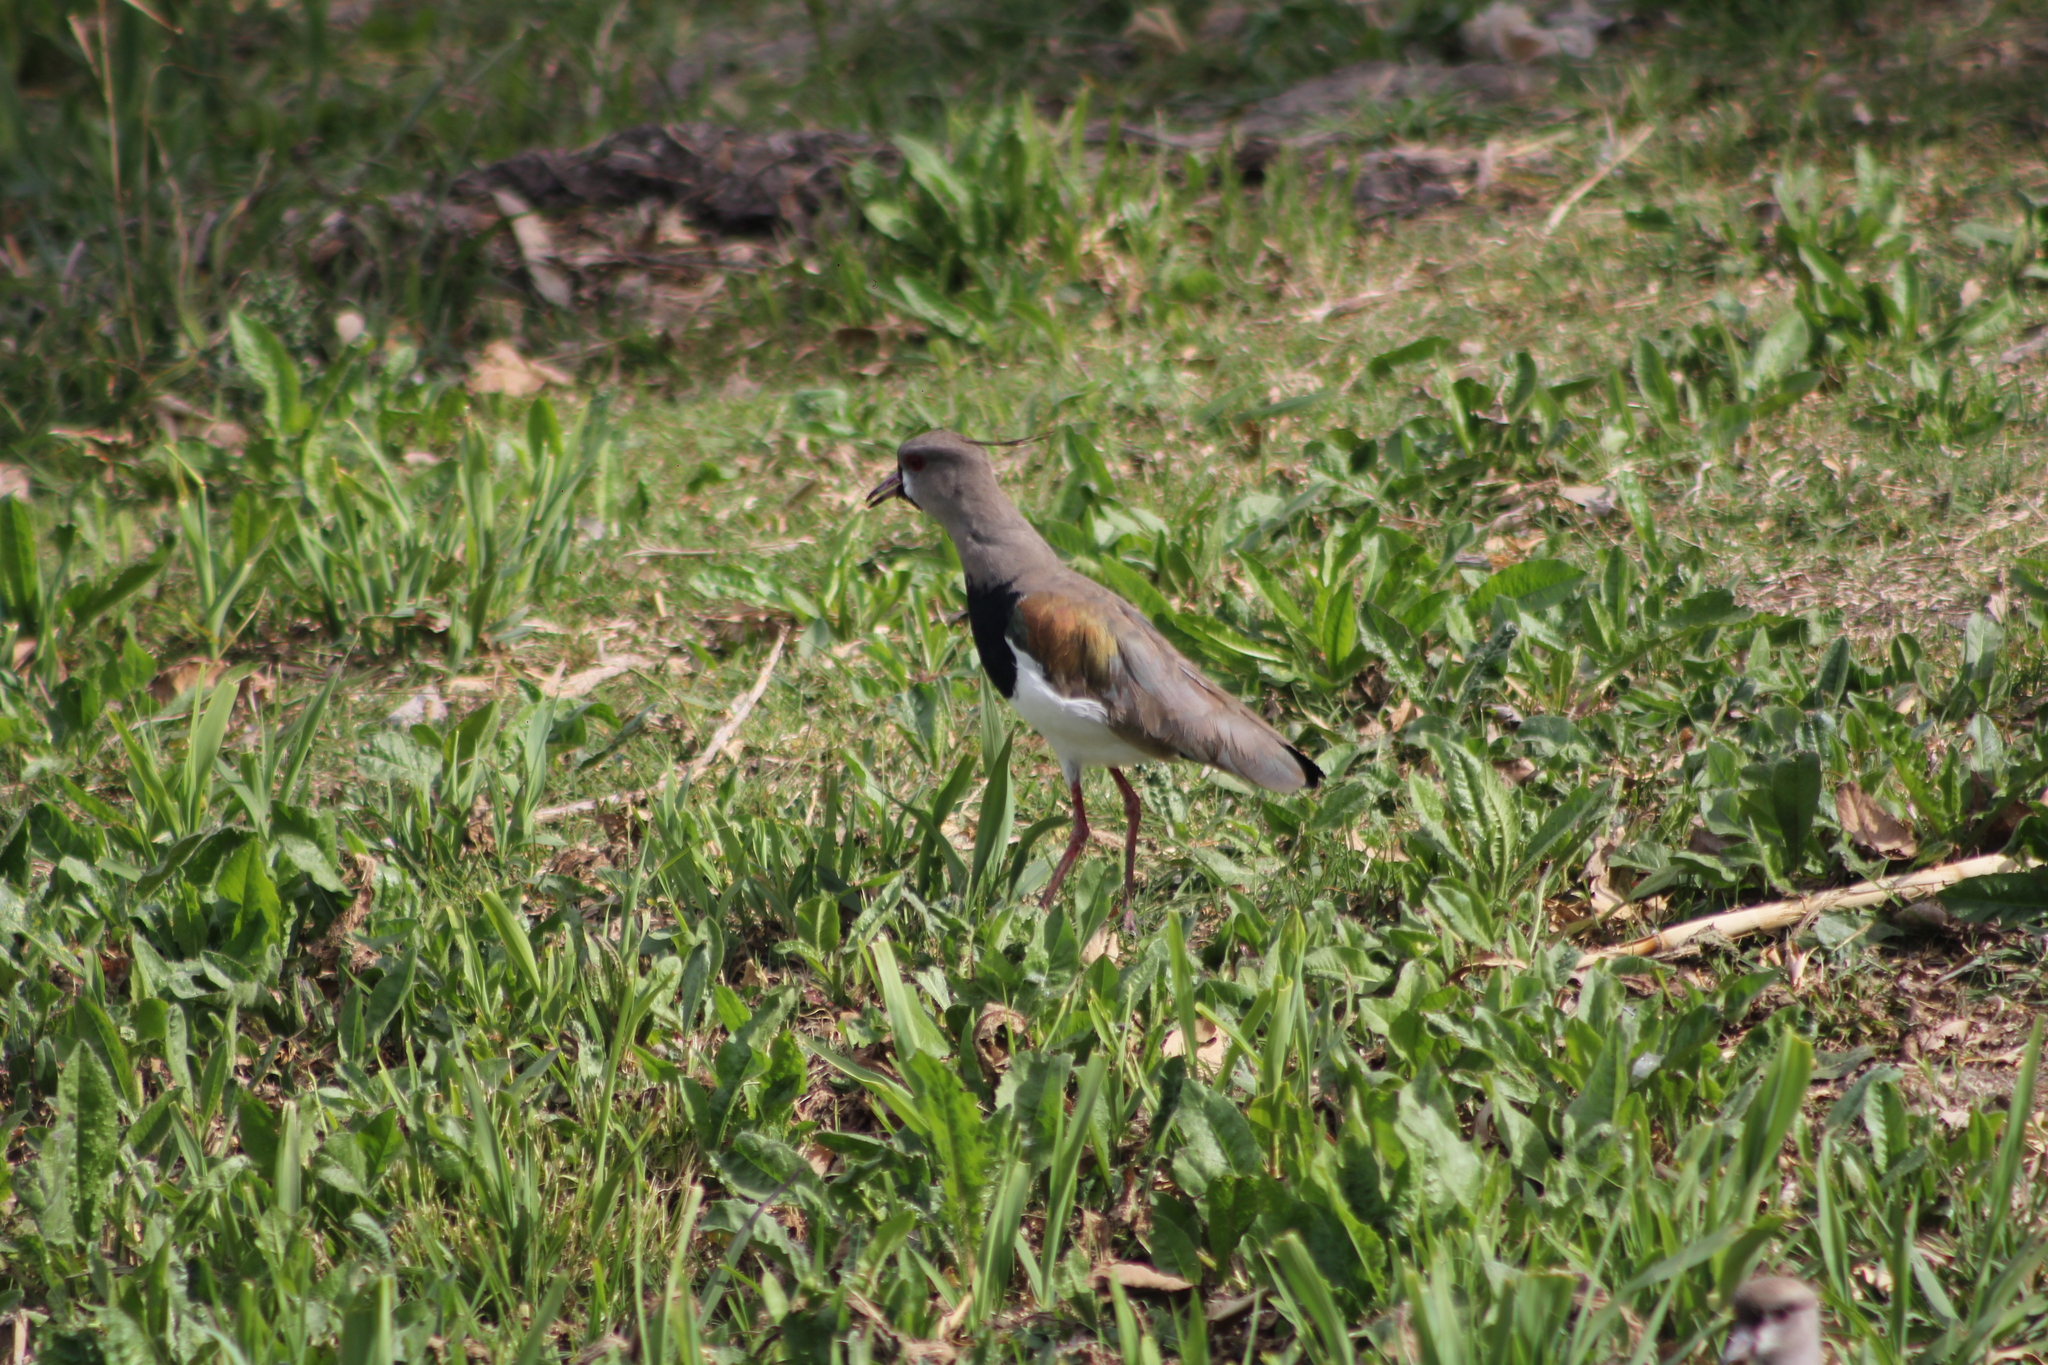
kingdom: Animalia
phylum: Chordata
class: Aves
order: Charadriiformes
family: Charadriidae
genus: Vanellus
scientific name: Vanellus chilensis
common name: Southern lapwing
